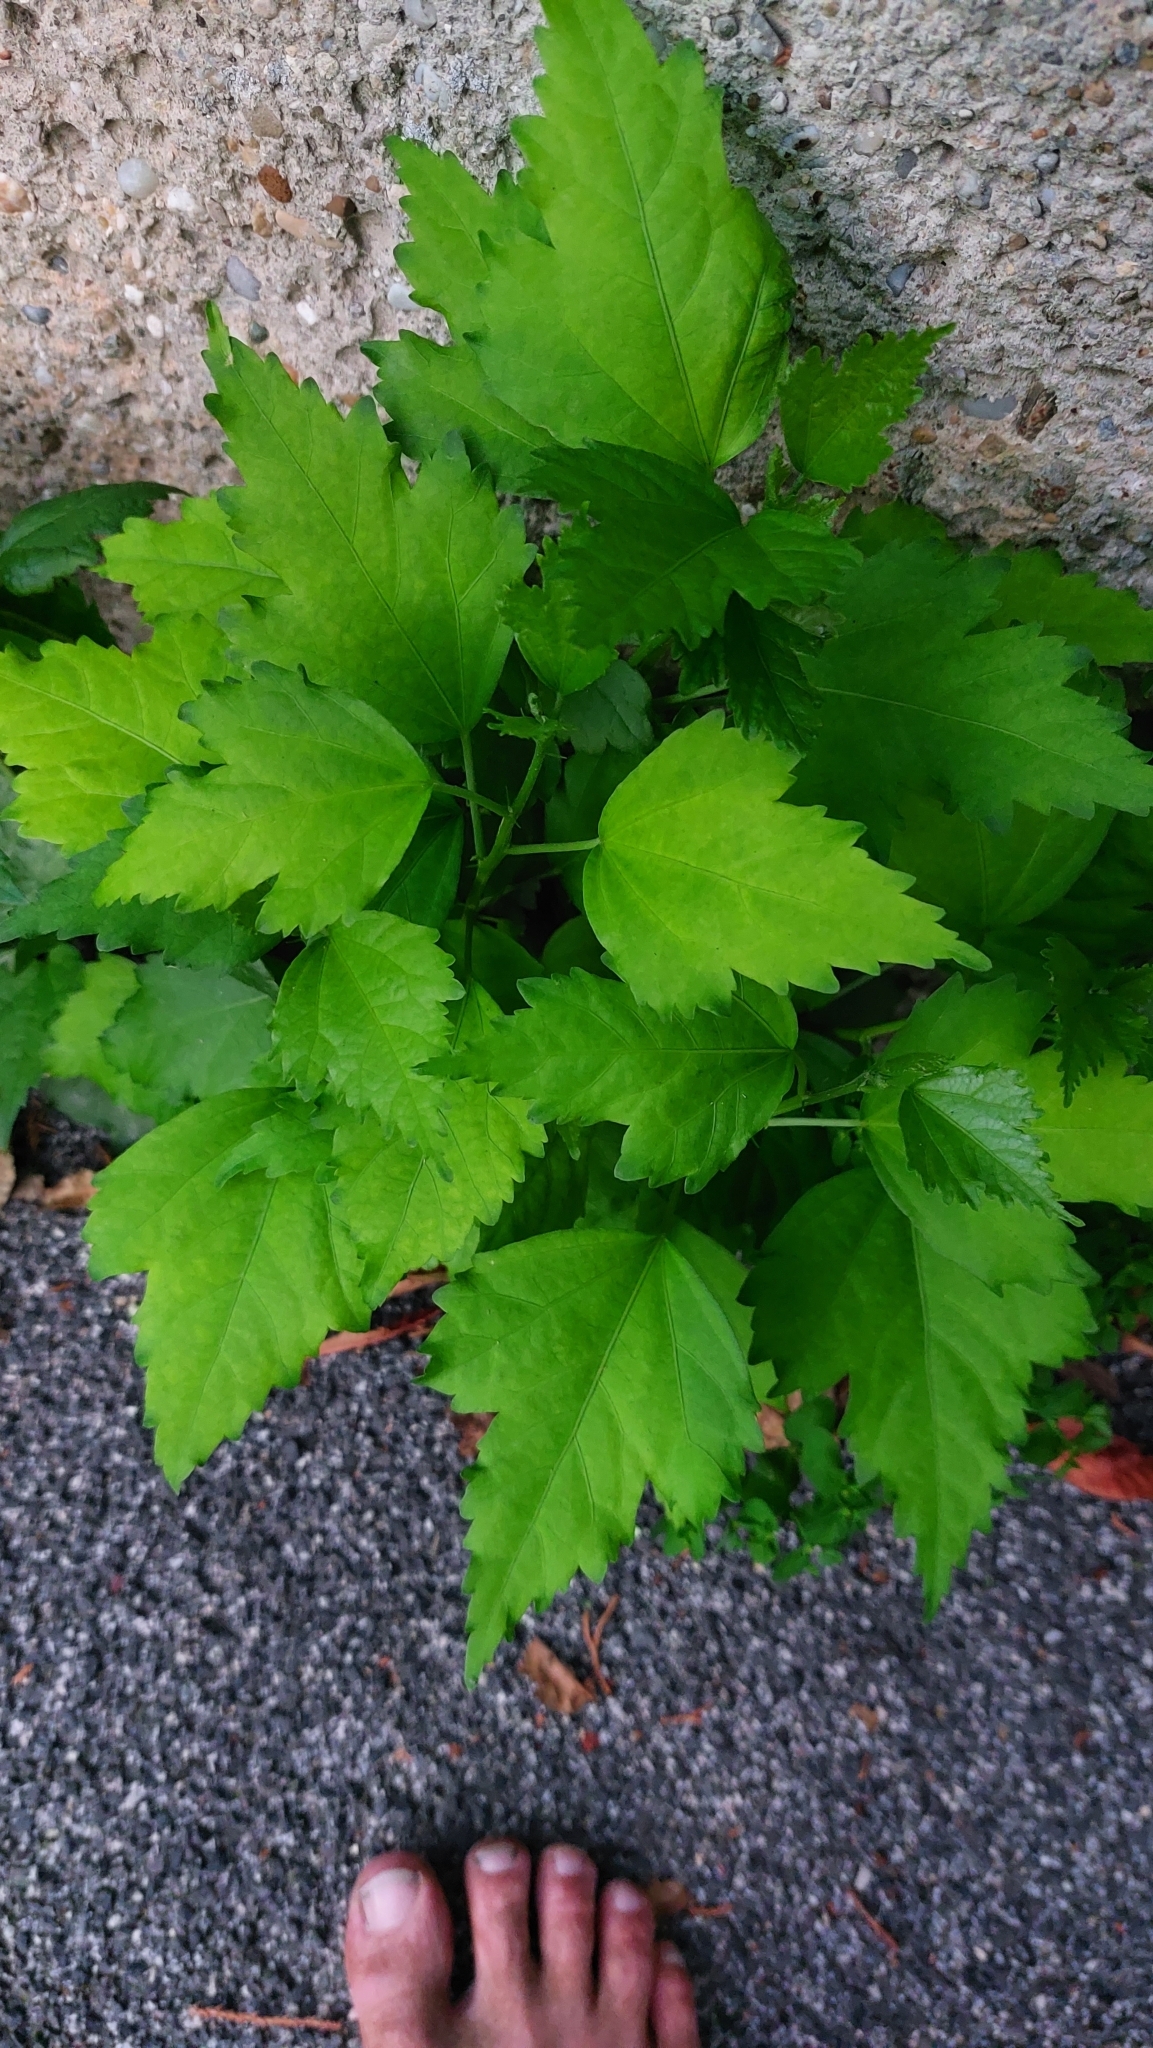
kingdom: Plantae
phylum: Tracheophyta
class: Magnoliopsida
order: Malvales
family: Malvaceae
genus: Hibiscus
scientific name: Hibiscus syriacus
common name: Syrian ketmia
